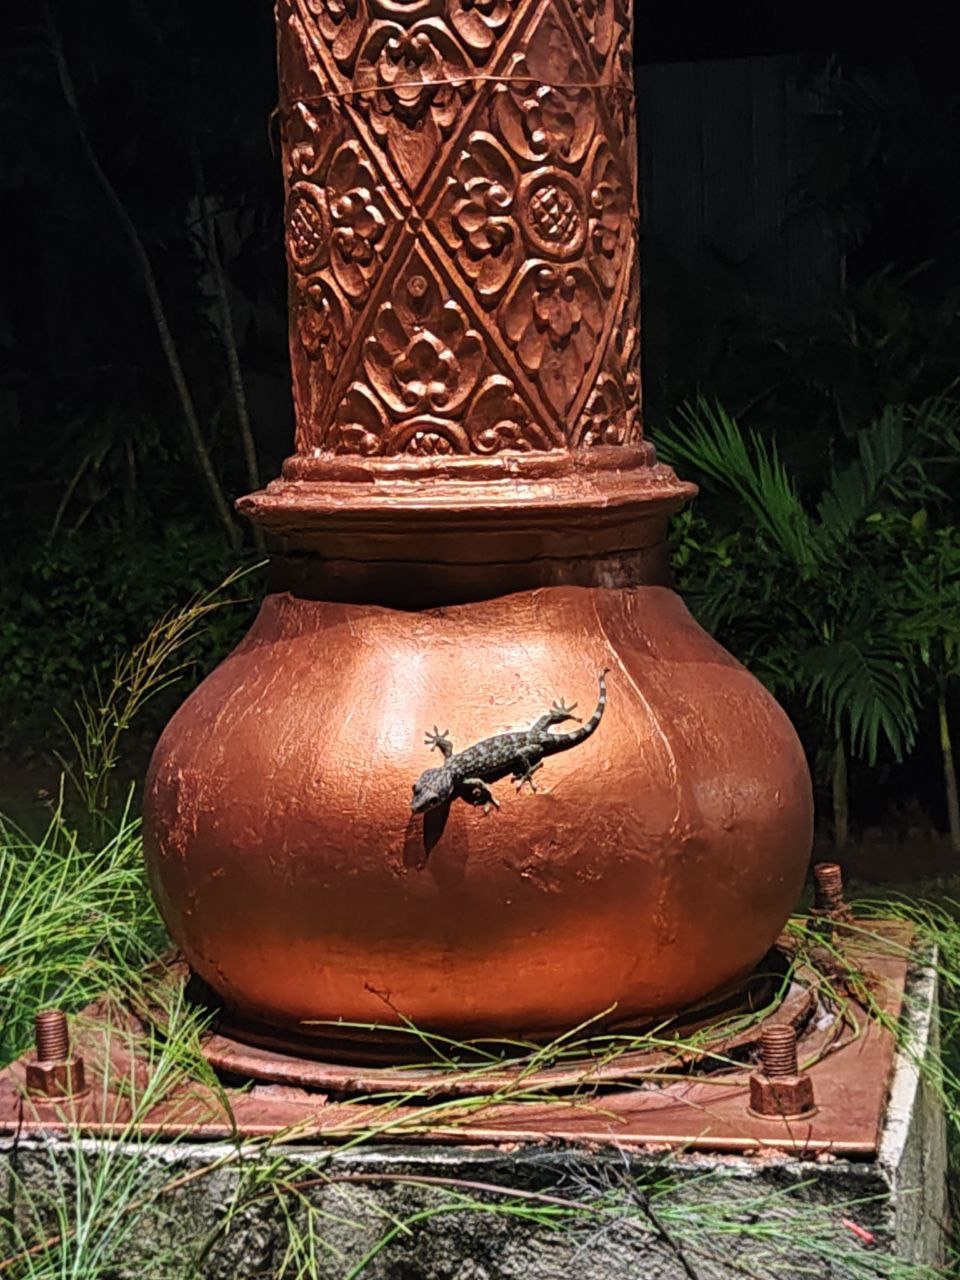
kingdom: Animalia
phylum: Chordata
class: Squamata
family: Gekkonidae
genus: Gekko
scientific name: Gekko gecko
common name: Tokay gecko
